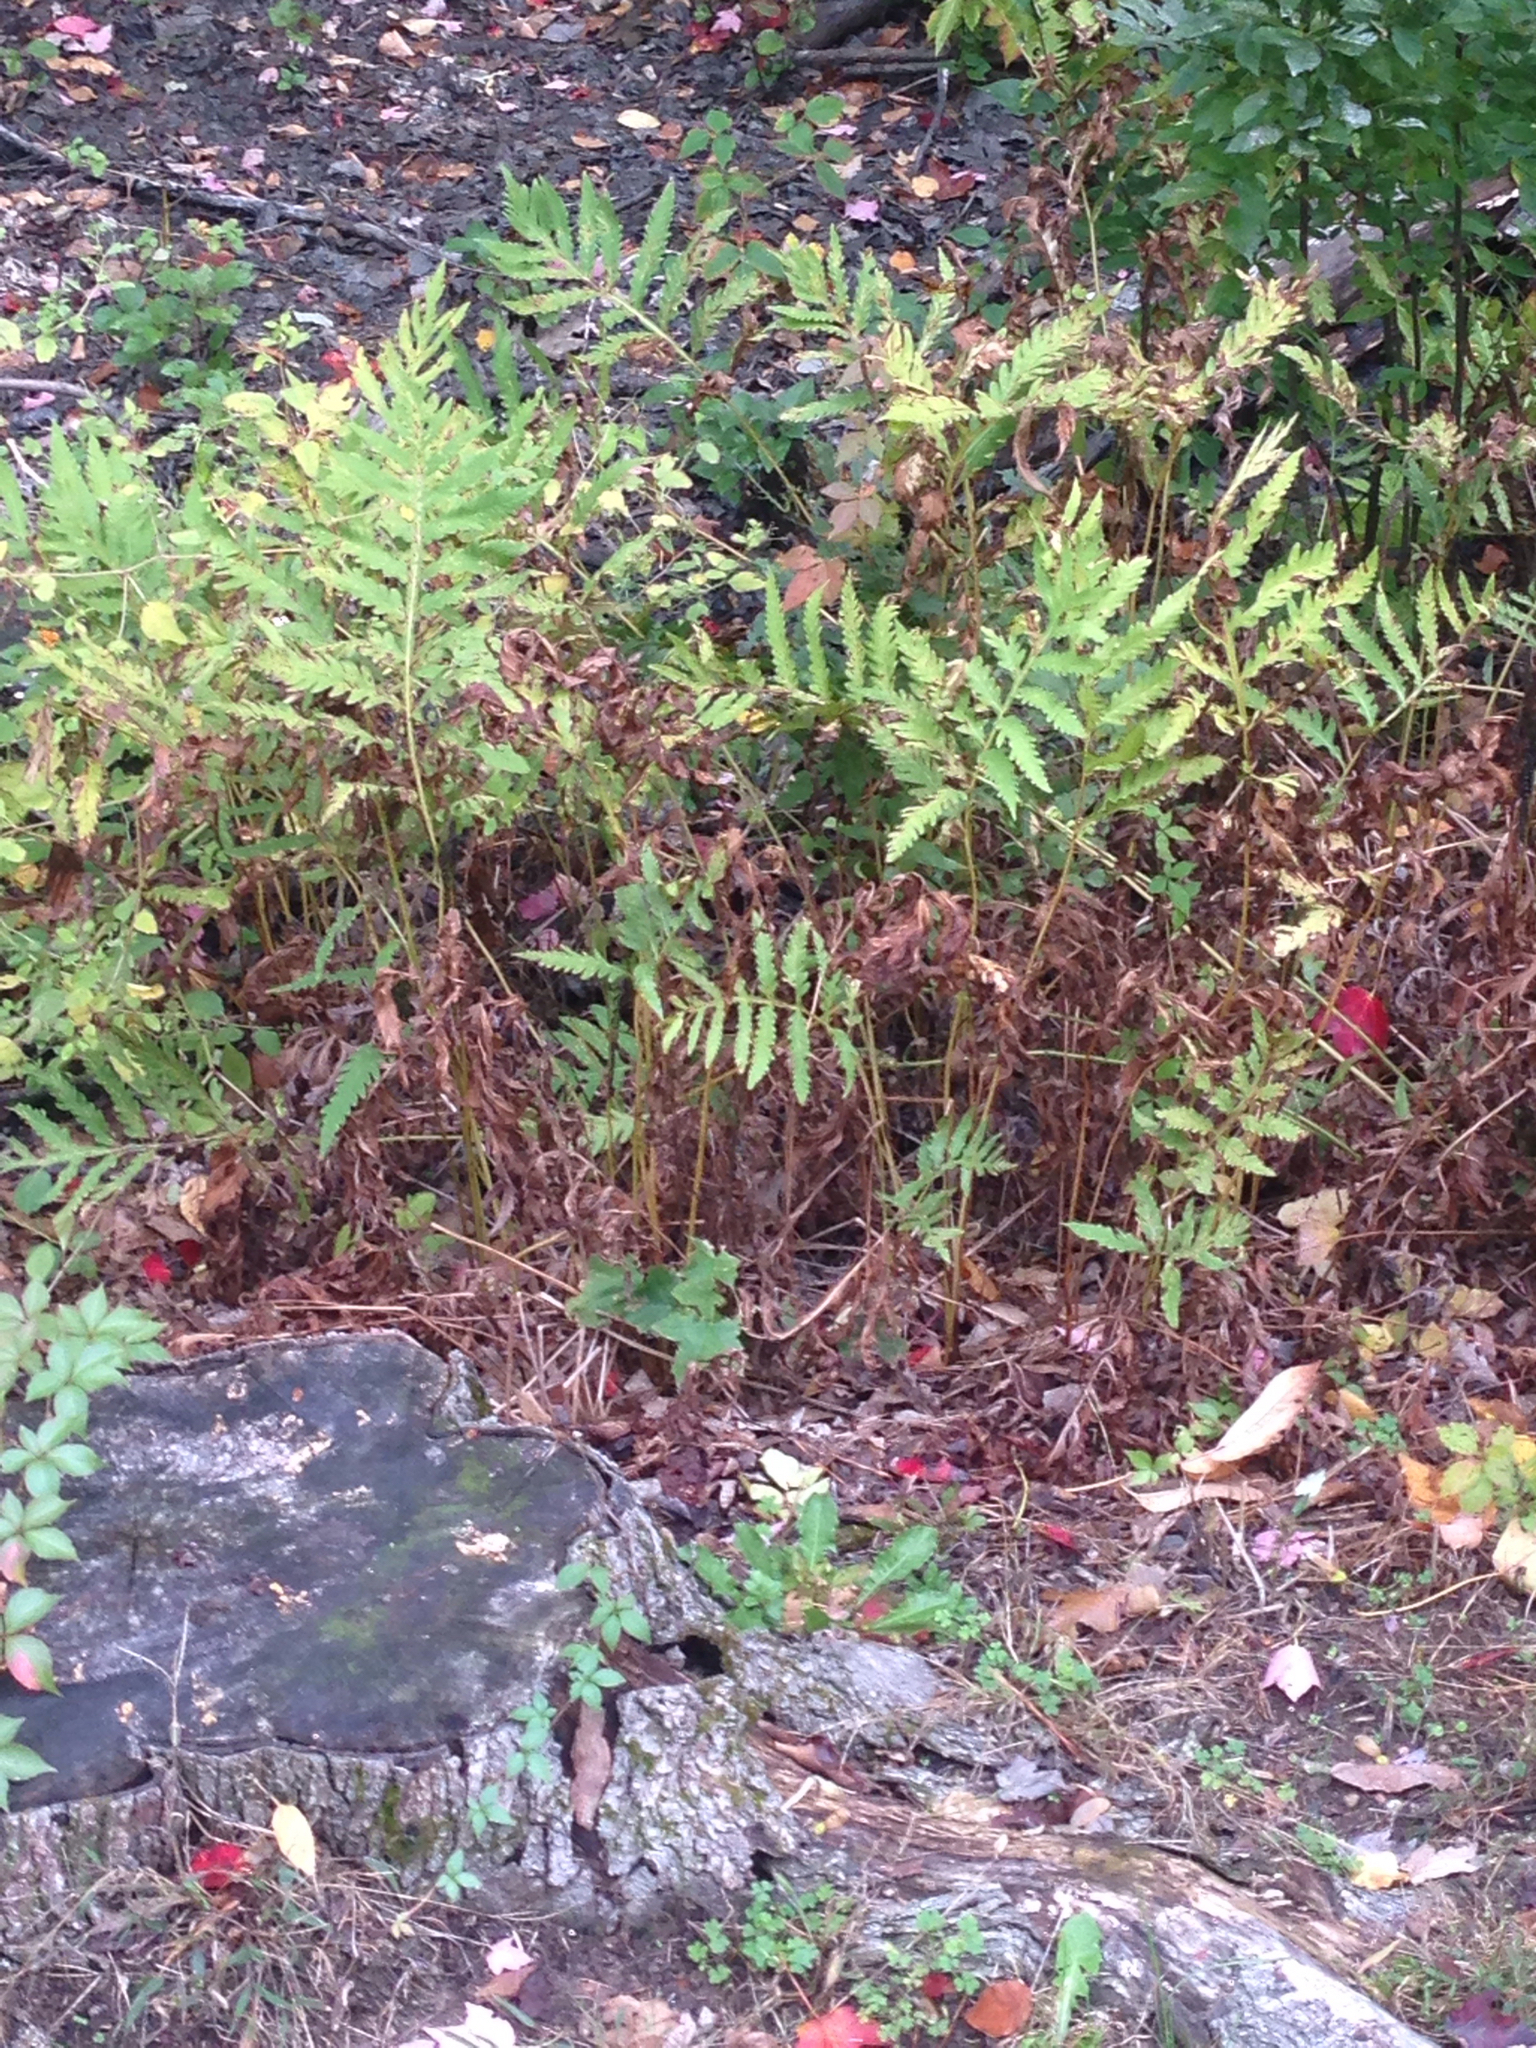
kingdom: Plantae
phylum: Tracheophyta
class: Polypodiopsida
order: Polypodiales
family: Onocleaceae
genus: Onoclea
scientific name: Onoclea sensibilis
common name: Sensitive fern
